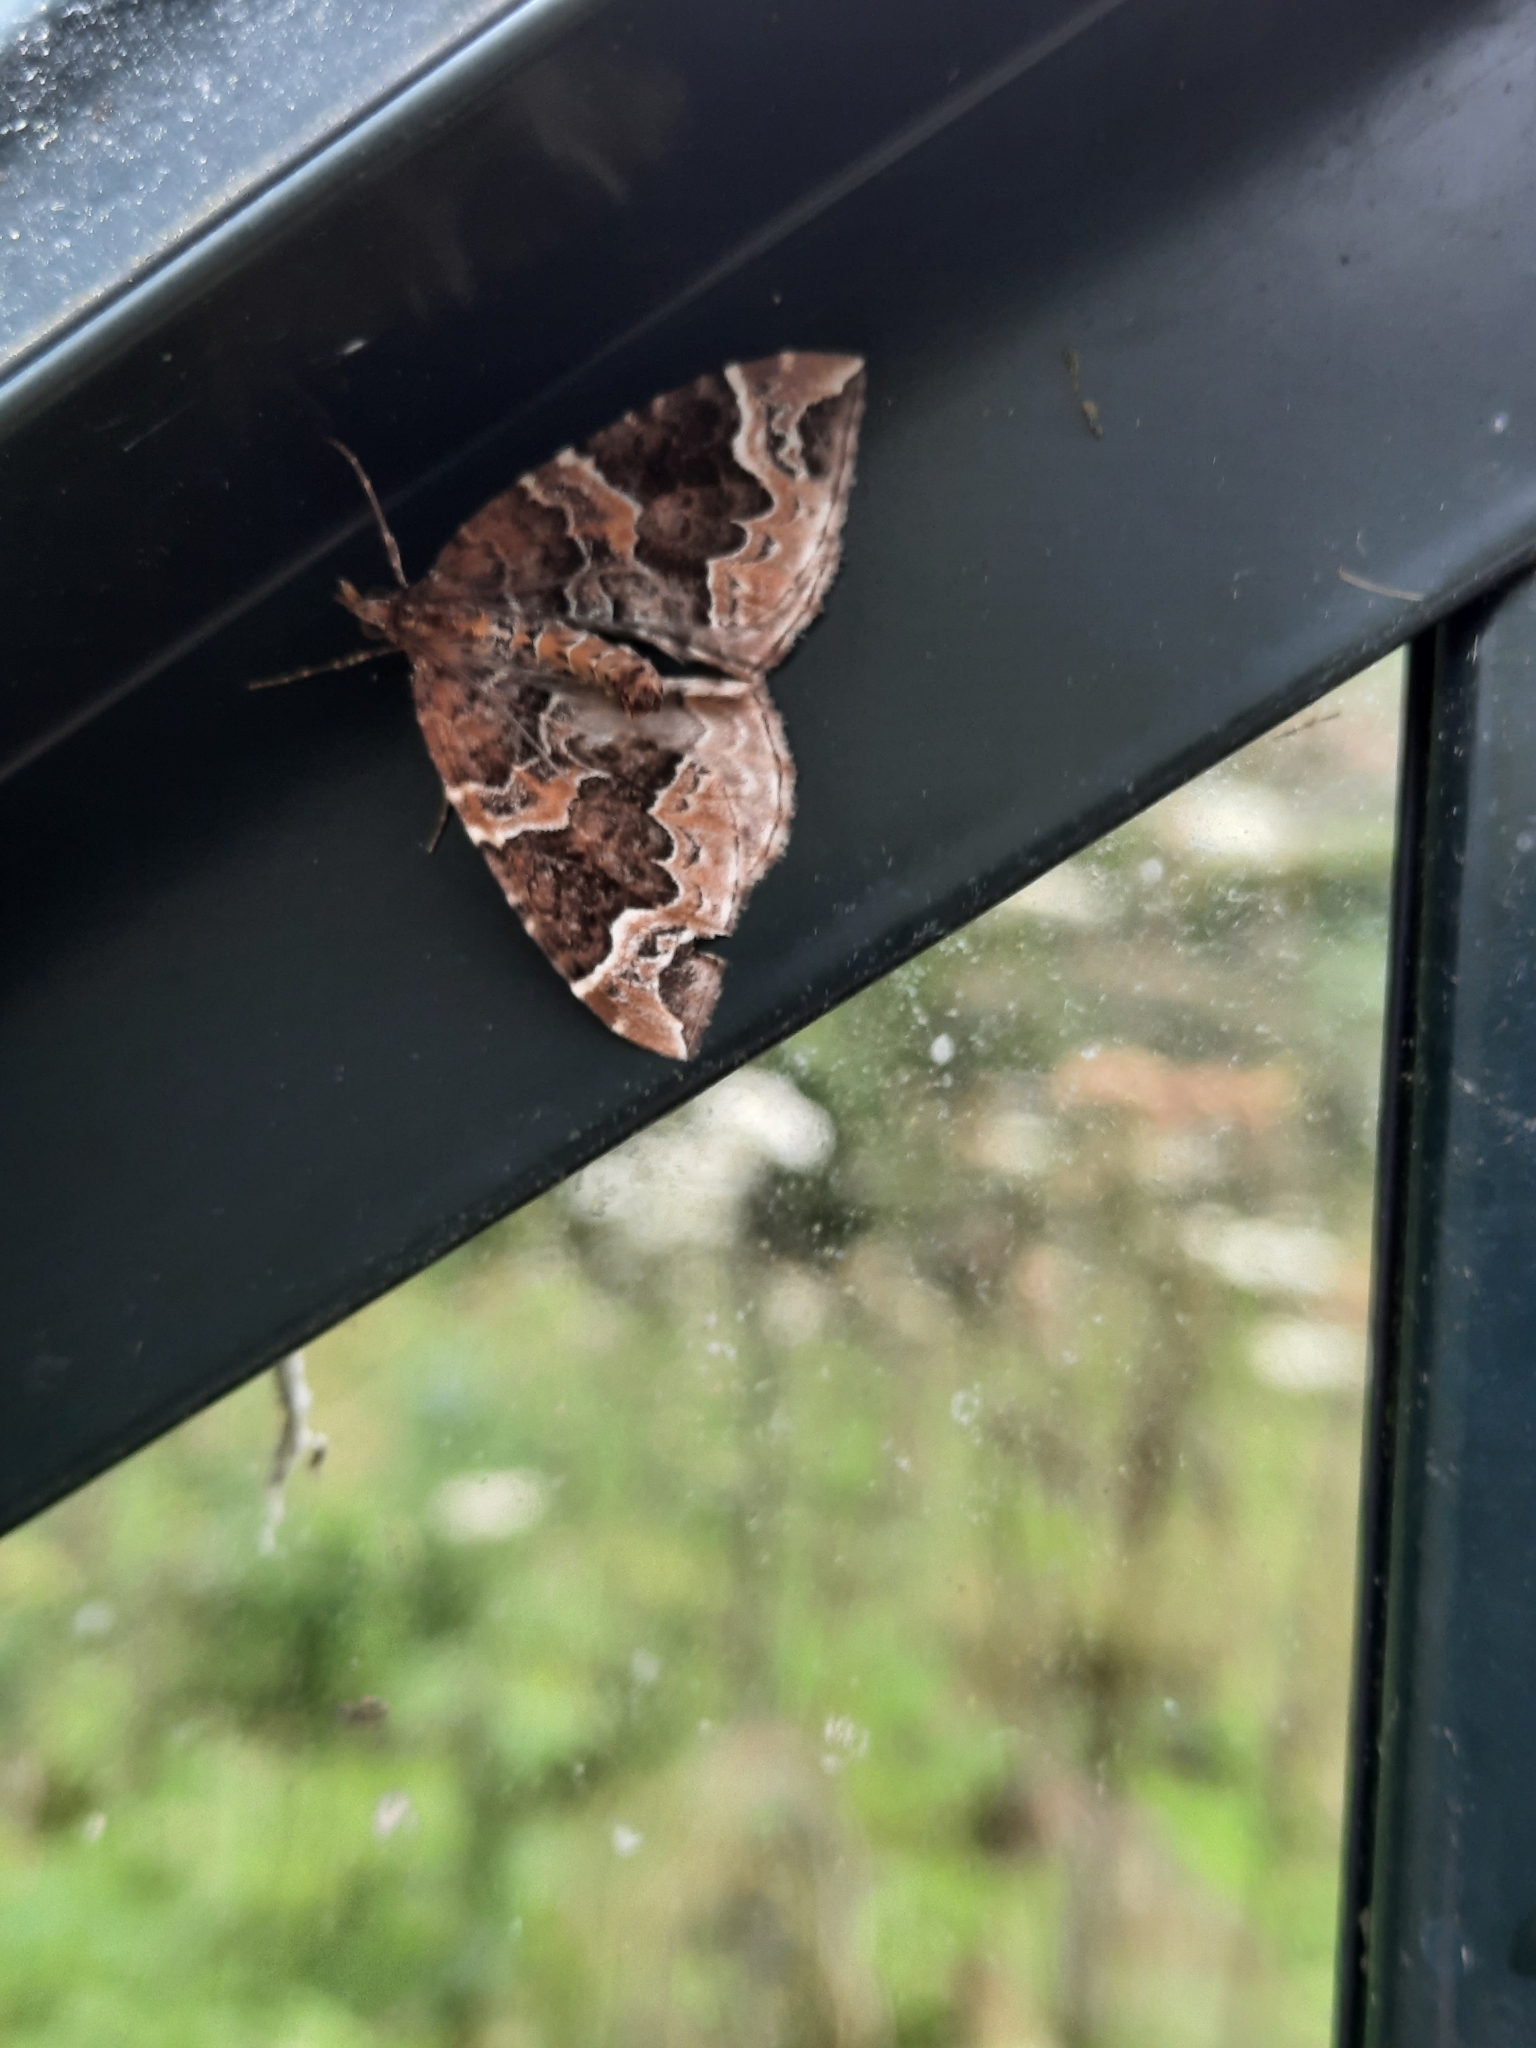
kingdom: Animalia
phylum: Arthropoda
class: Insecta
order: Lepidoptera
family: Geometridae
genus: Eulithis
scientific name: Eulithis prunata
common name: Phoenix
